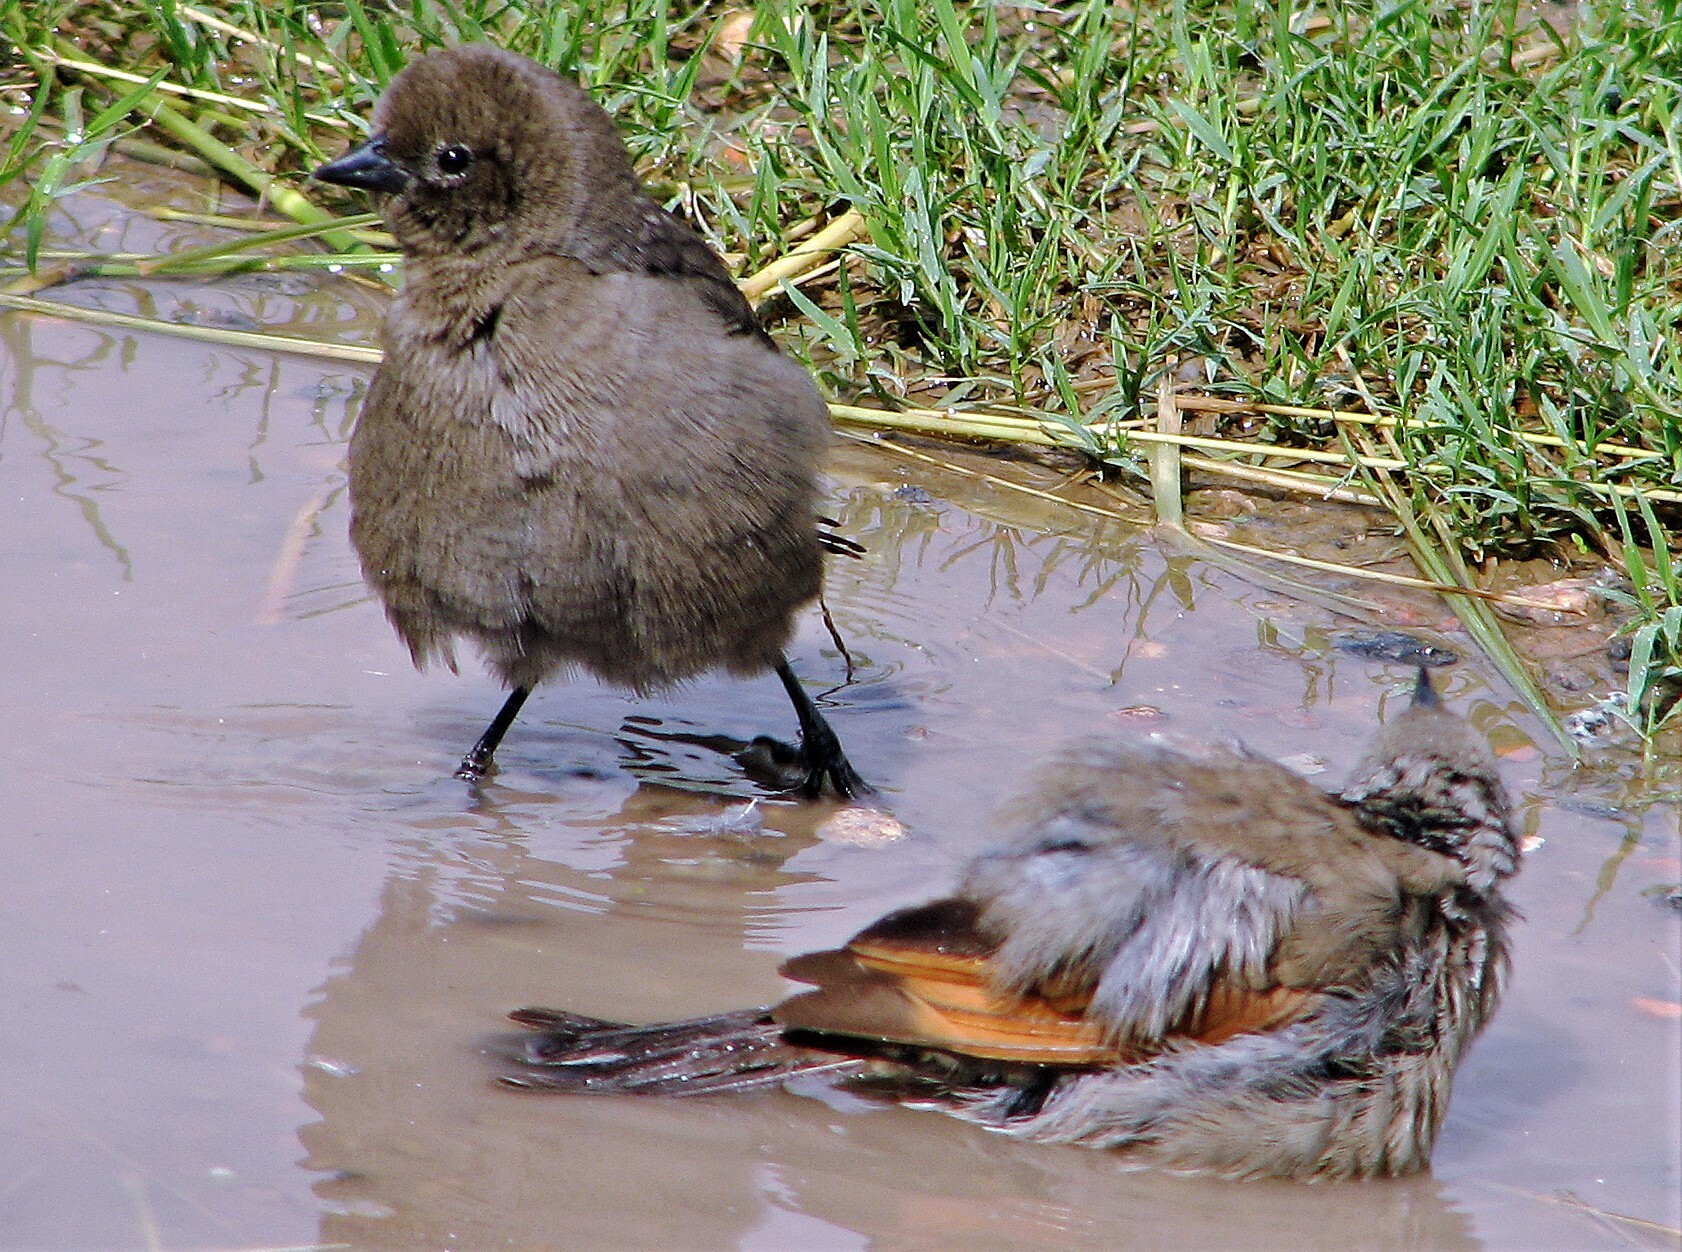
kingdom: Animalia
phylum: Chordata
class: Aves
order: Passeriformes
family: Icteridae
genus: Molothrus
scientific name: Molothrus bonariensis
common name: Shiny cowbird
